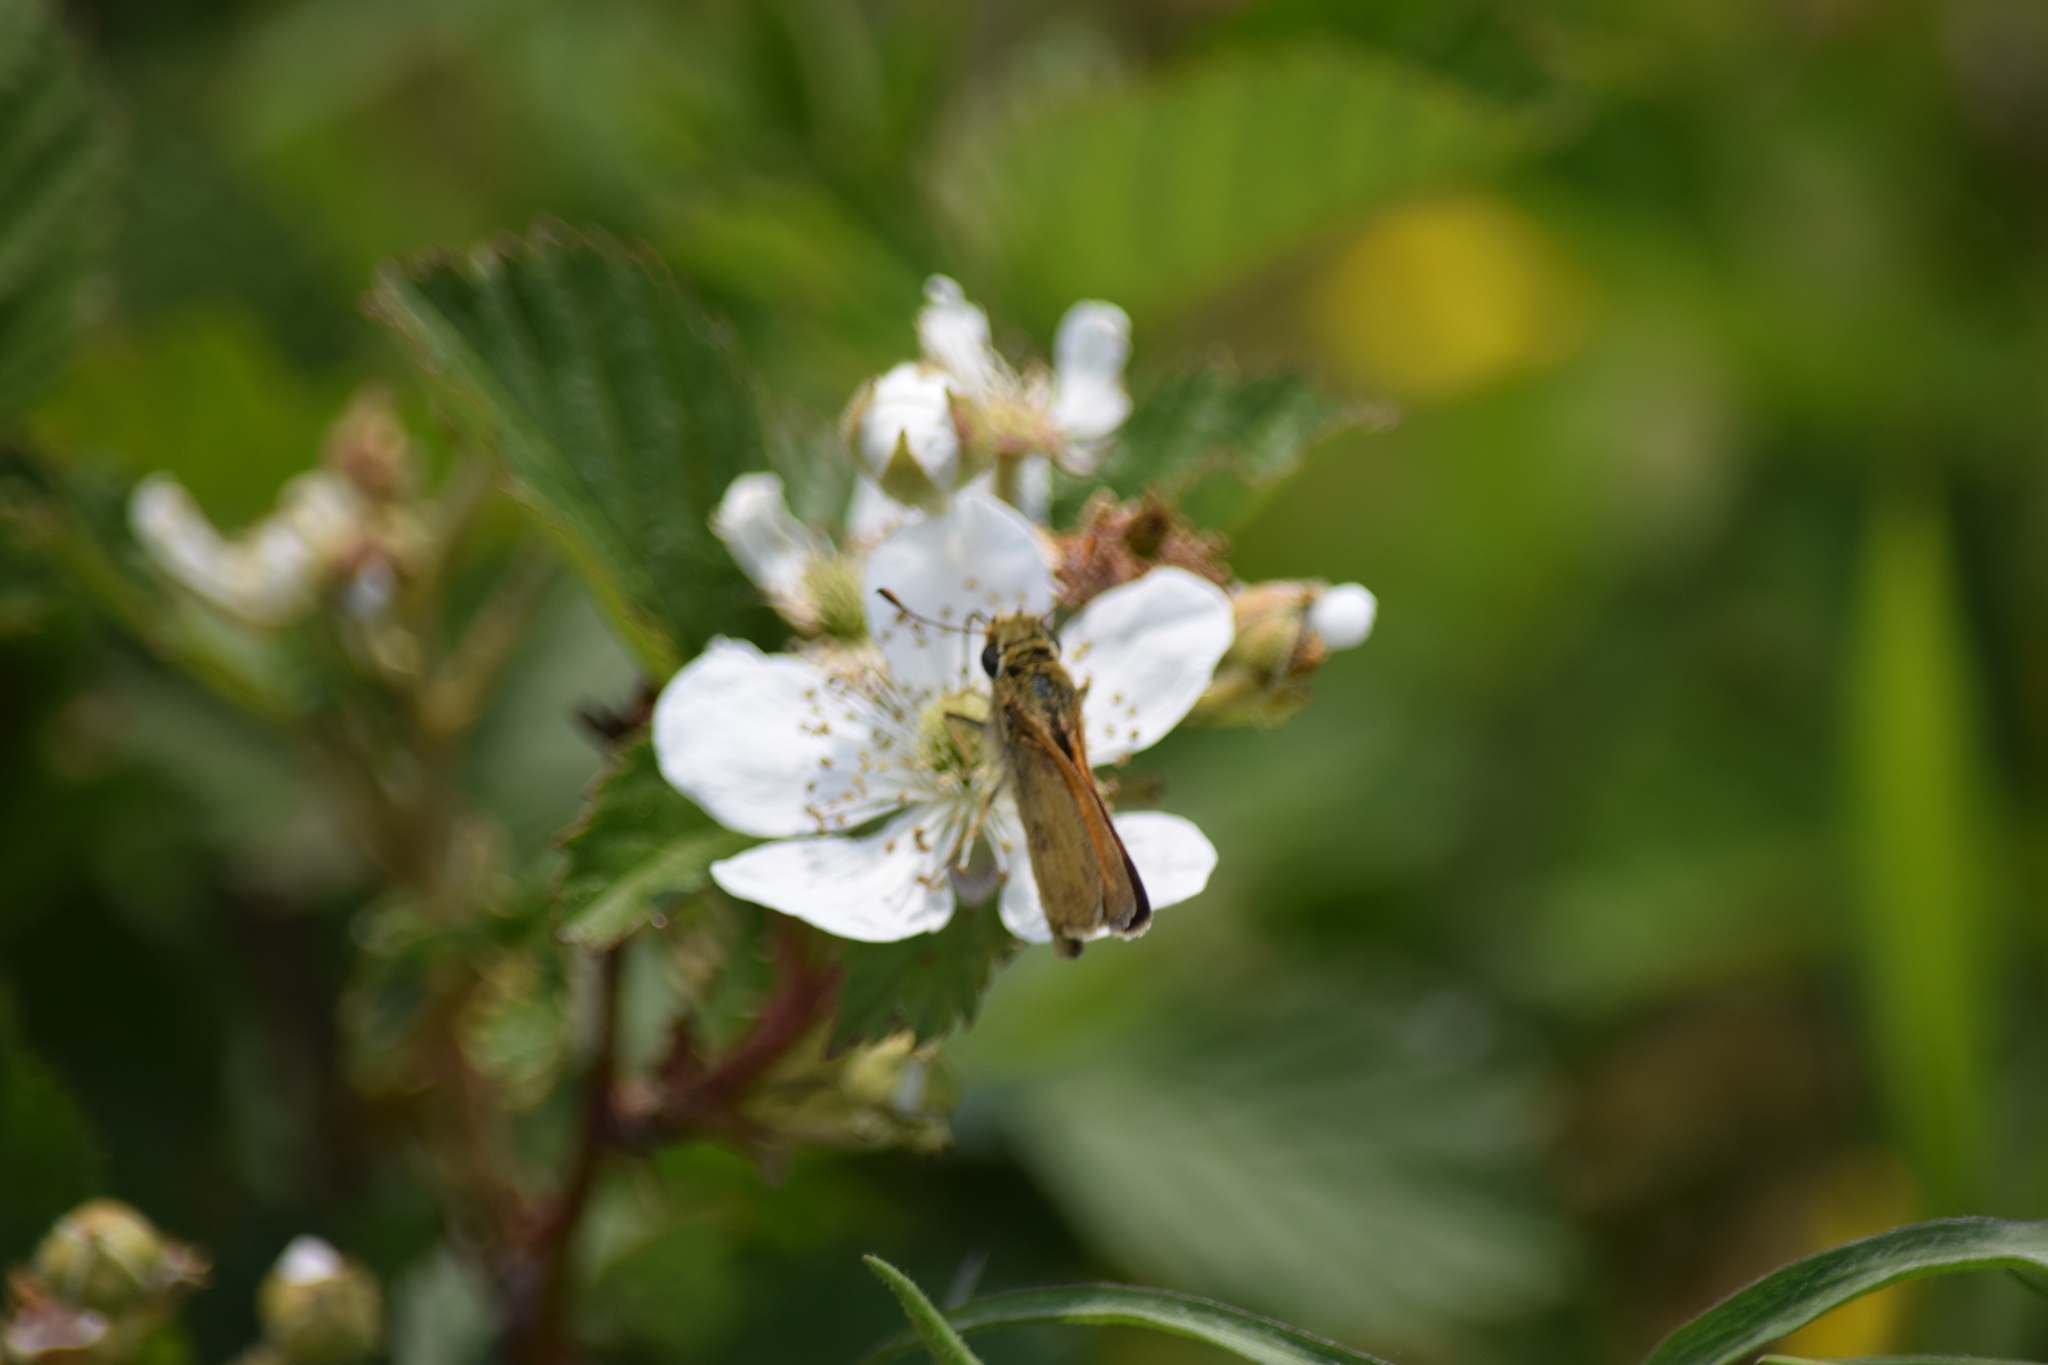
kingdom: Animalia
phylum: Arthropoda
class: Insecta
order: Lepidoptera
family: Hesperiidae
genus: Atalopedes
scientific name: Atalopedes
